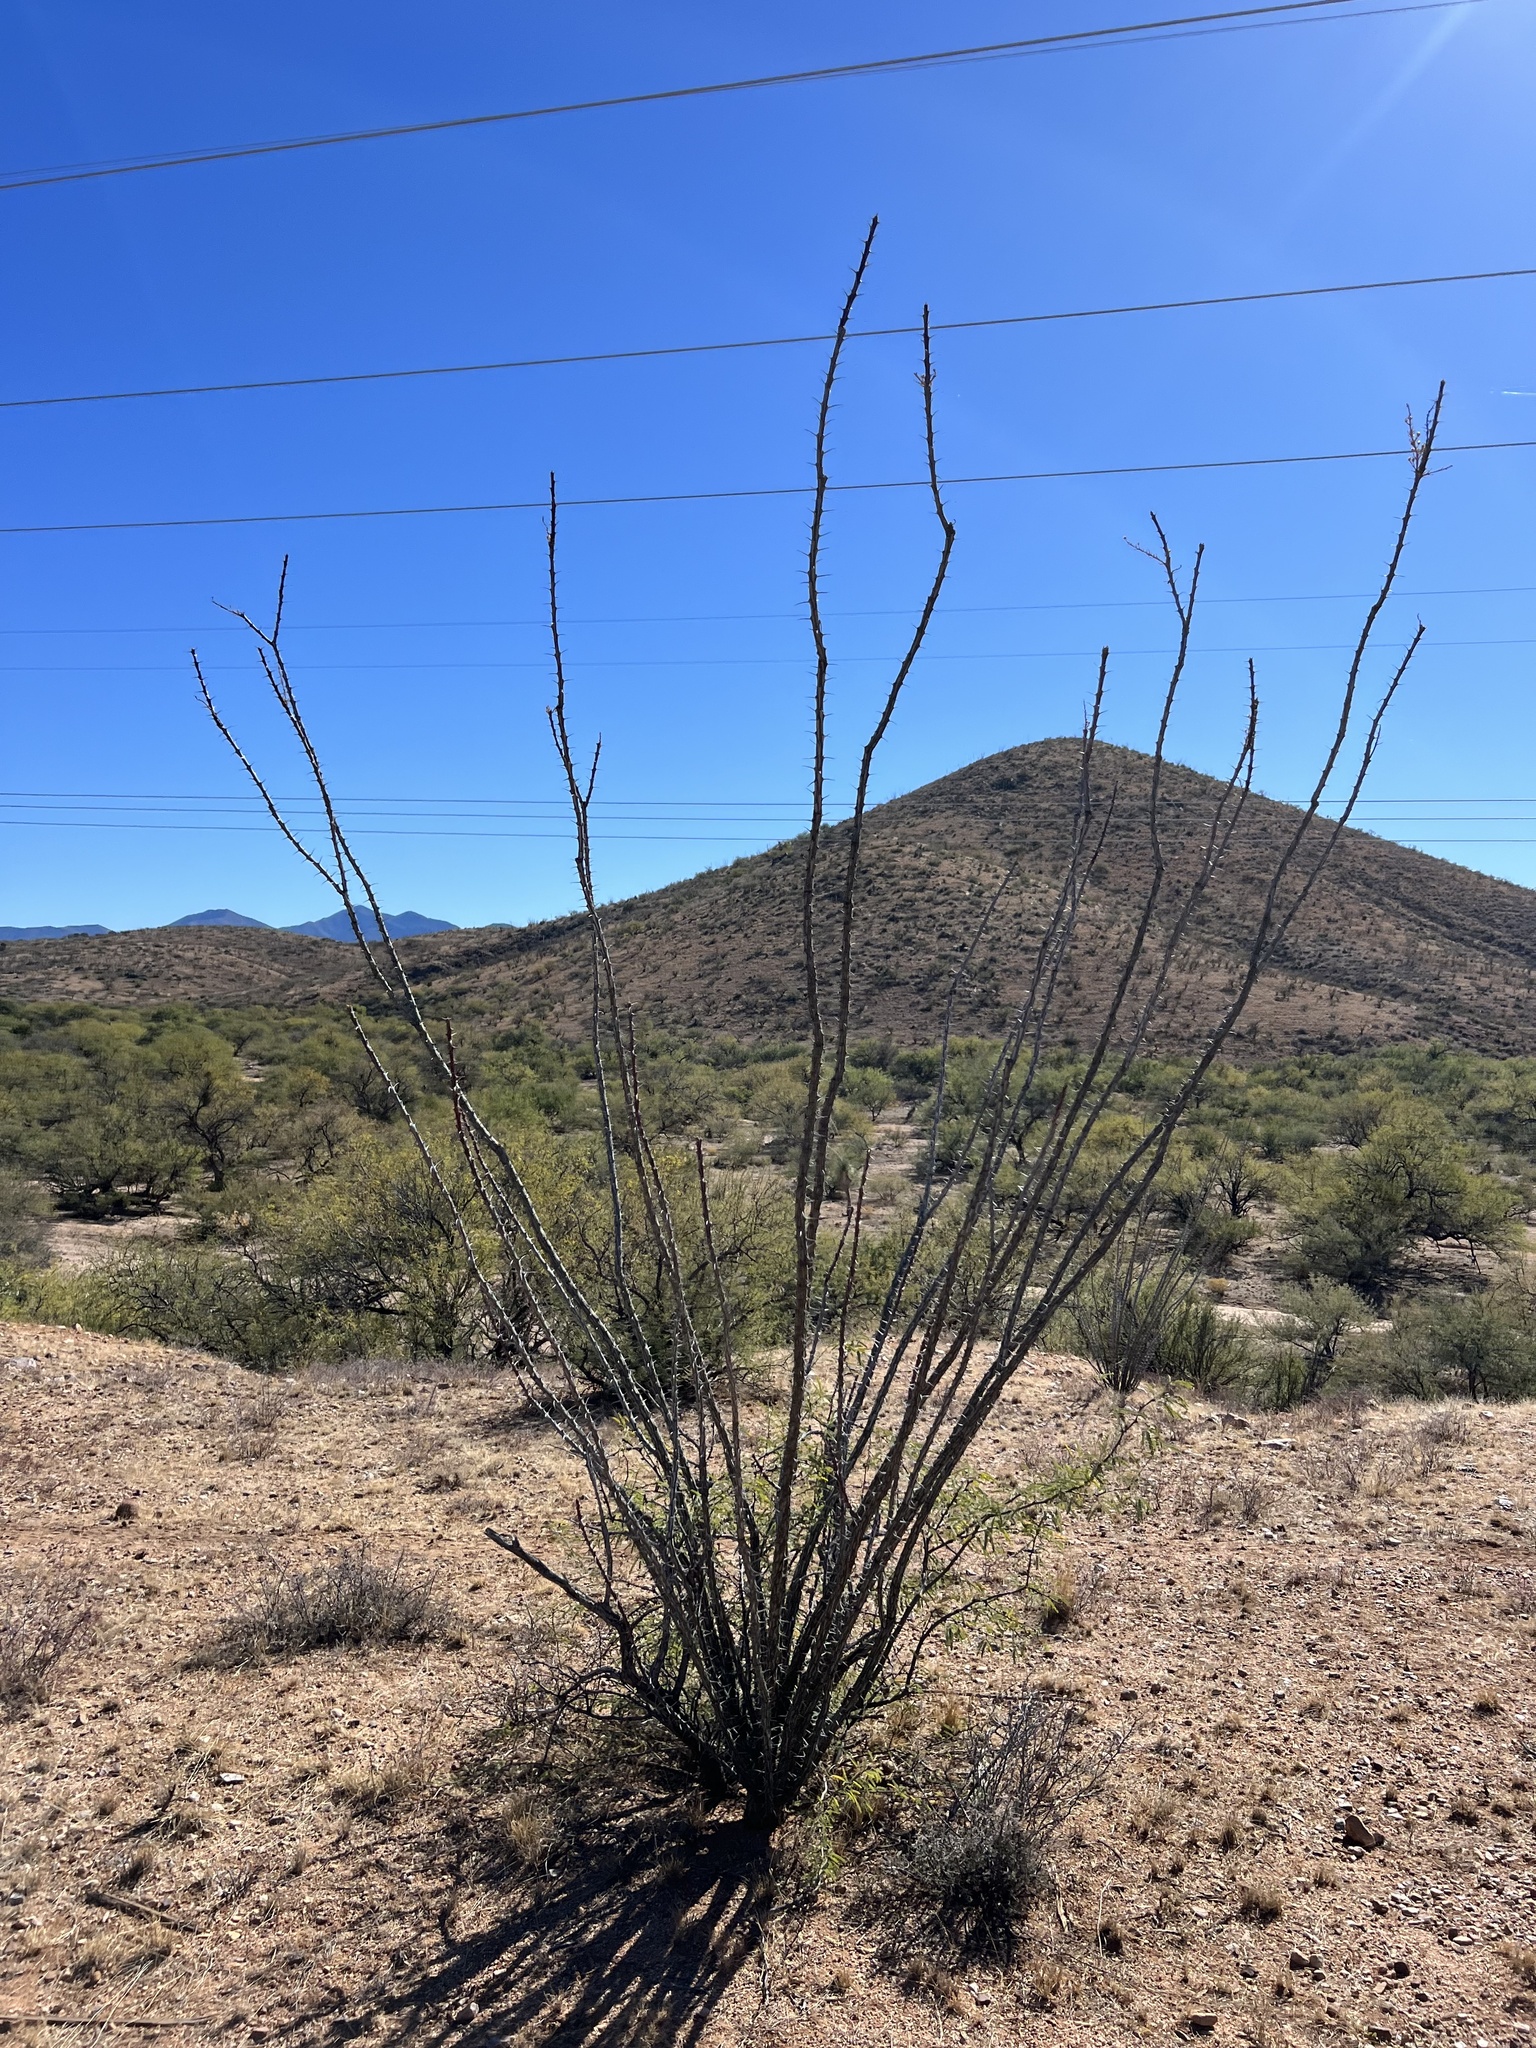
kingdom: Plantae
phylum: Tracheophyta
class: Magnoliopsida
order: Ericales
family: Fouquieriaceae
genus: Fouquieria
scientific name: Fouquieria splendens
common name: Vine-cactus
